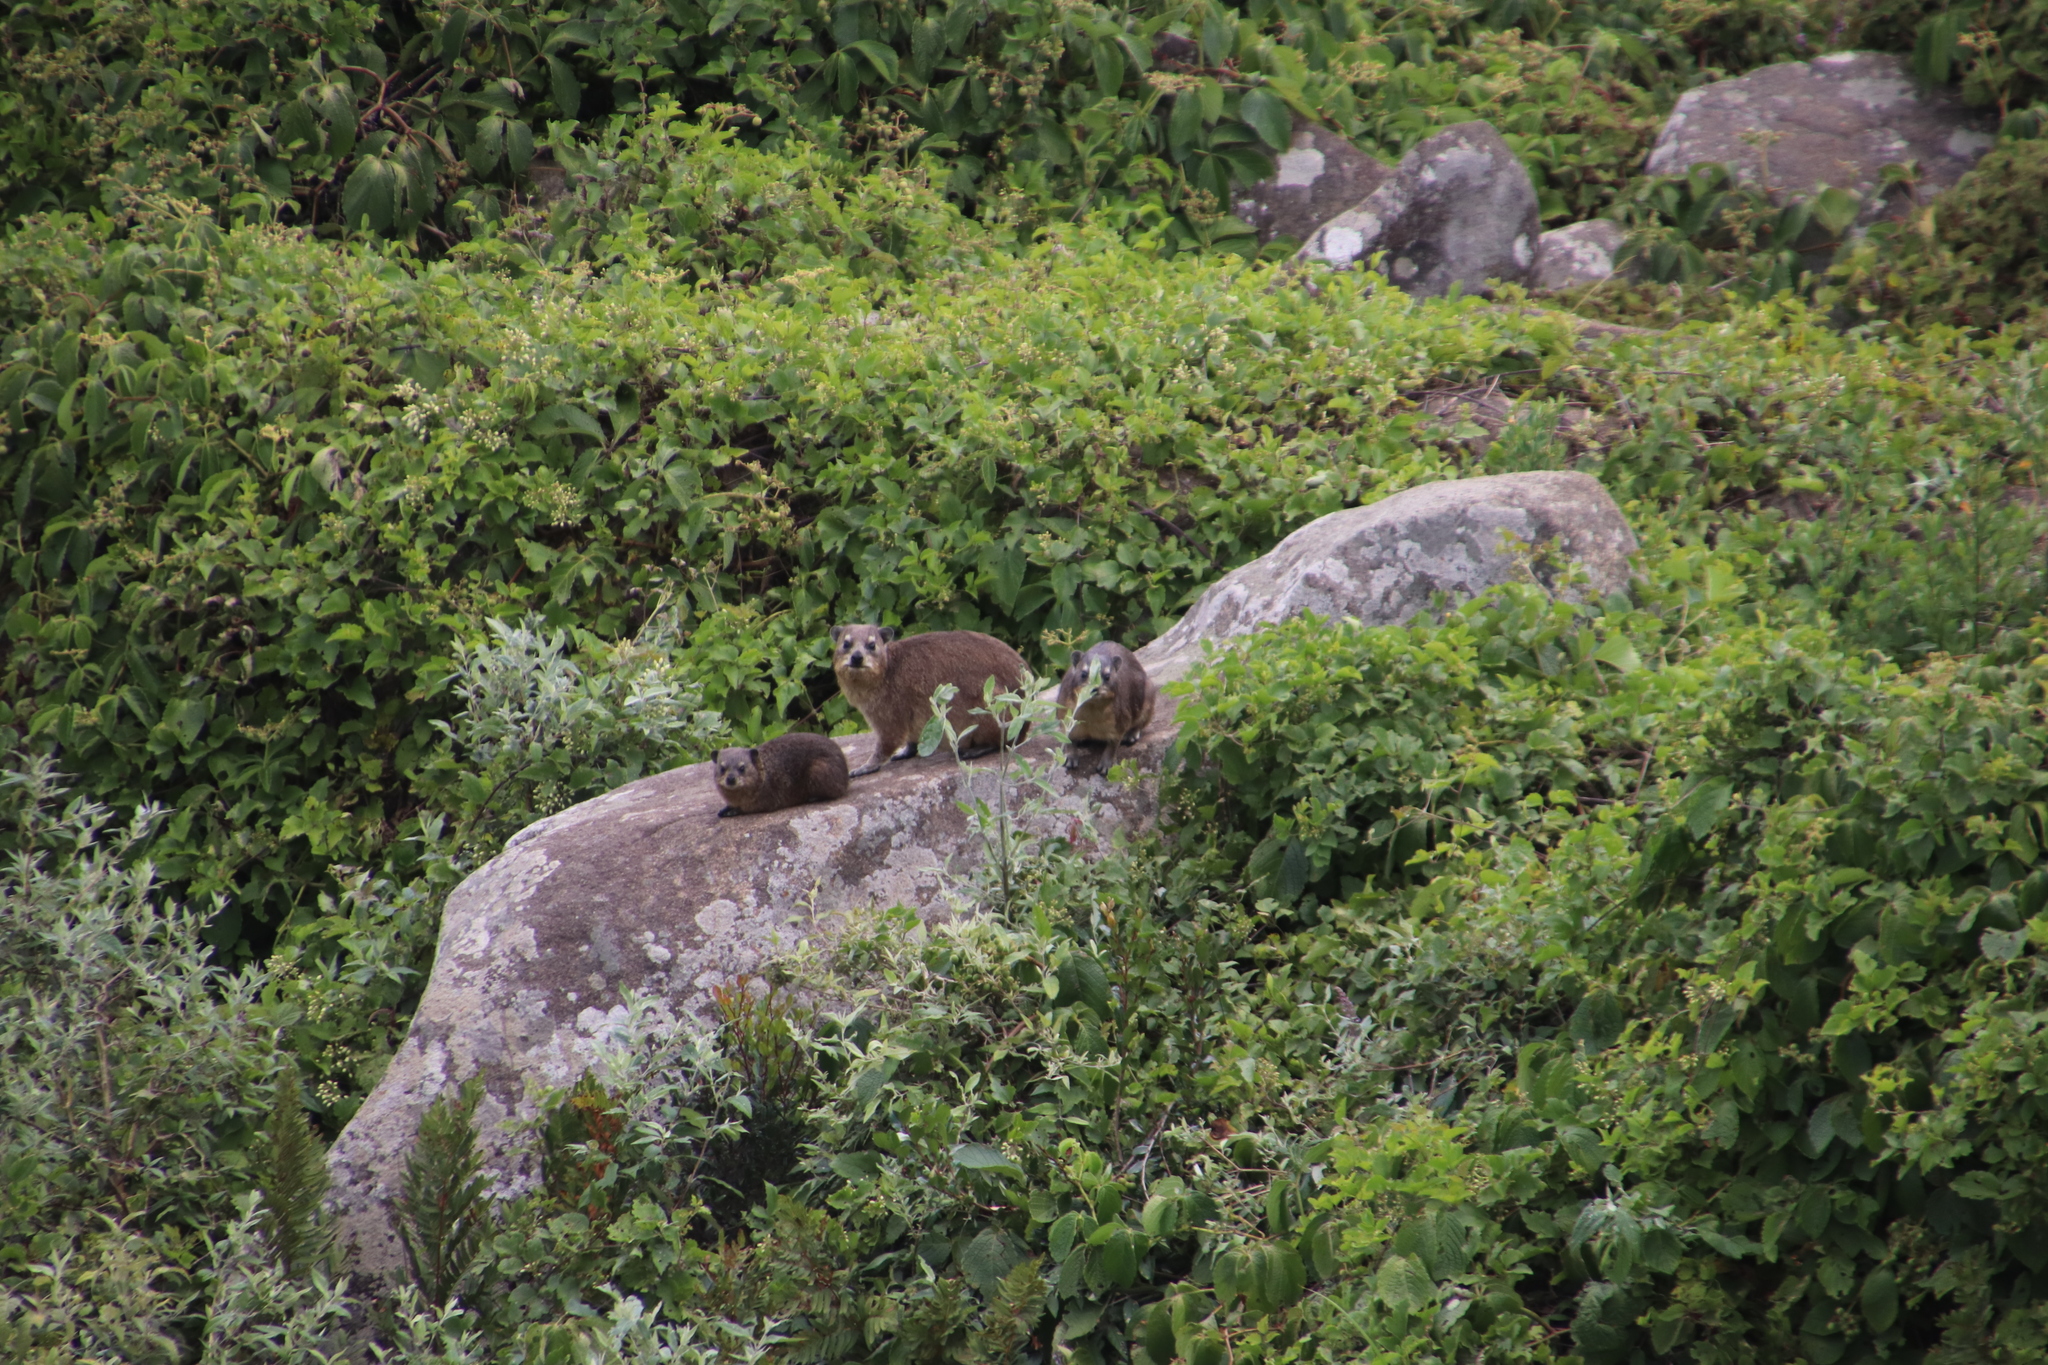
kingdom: Animalia
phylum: Chordata
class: Mammalia
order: Hyracoidea
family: Procaviidae
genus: Procavia
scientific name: Procavia capensis
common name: Rock hyrax
